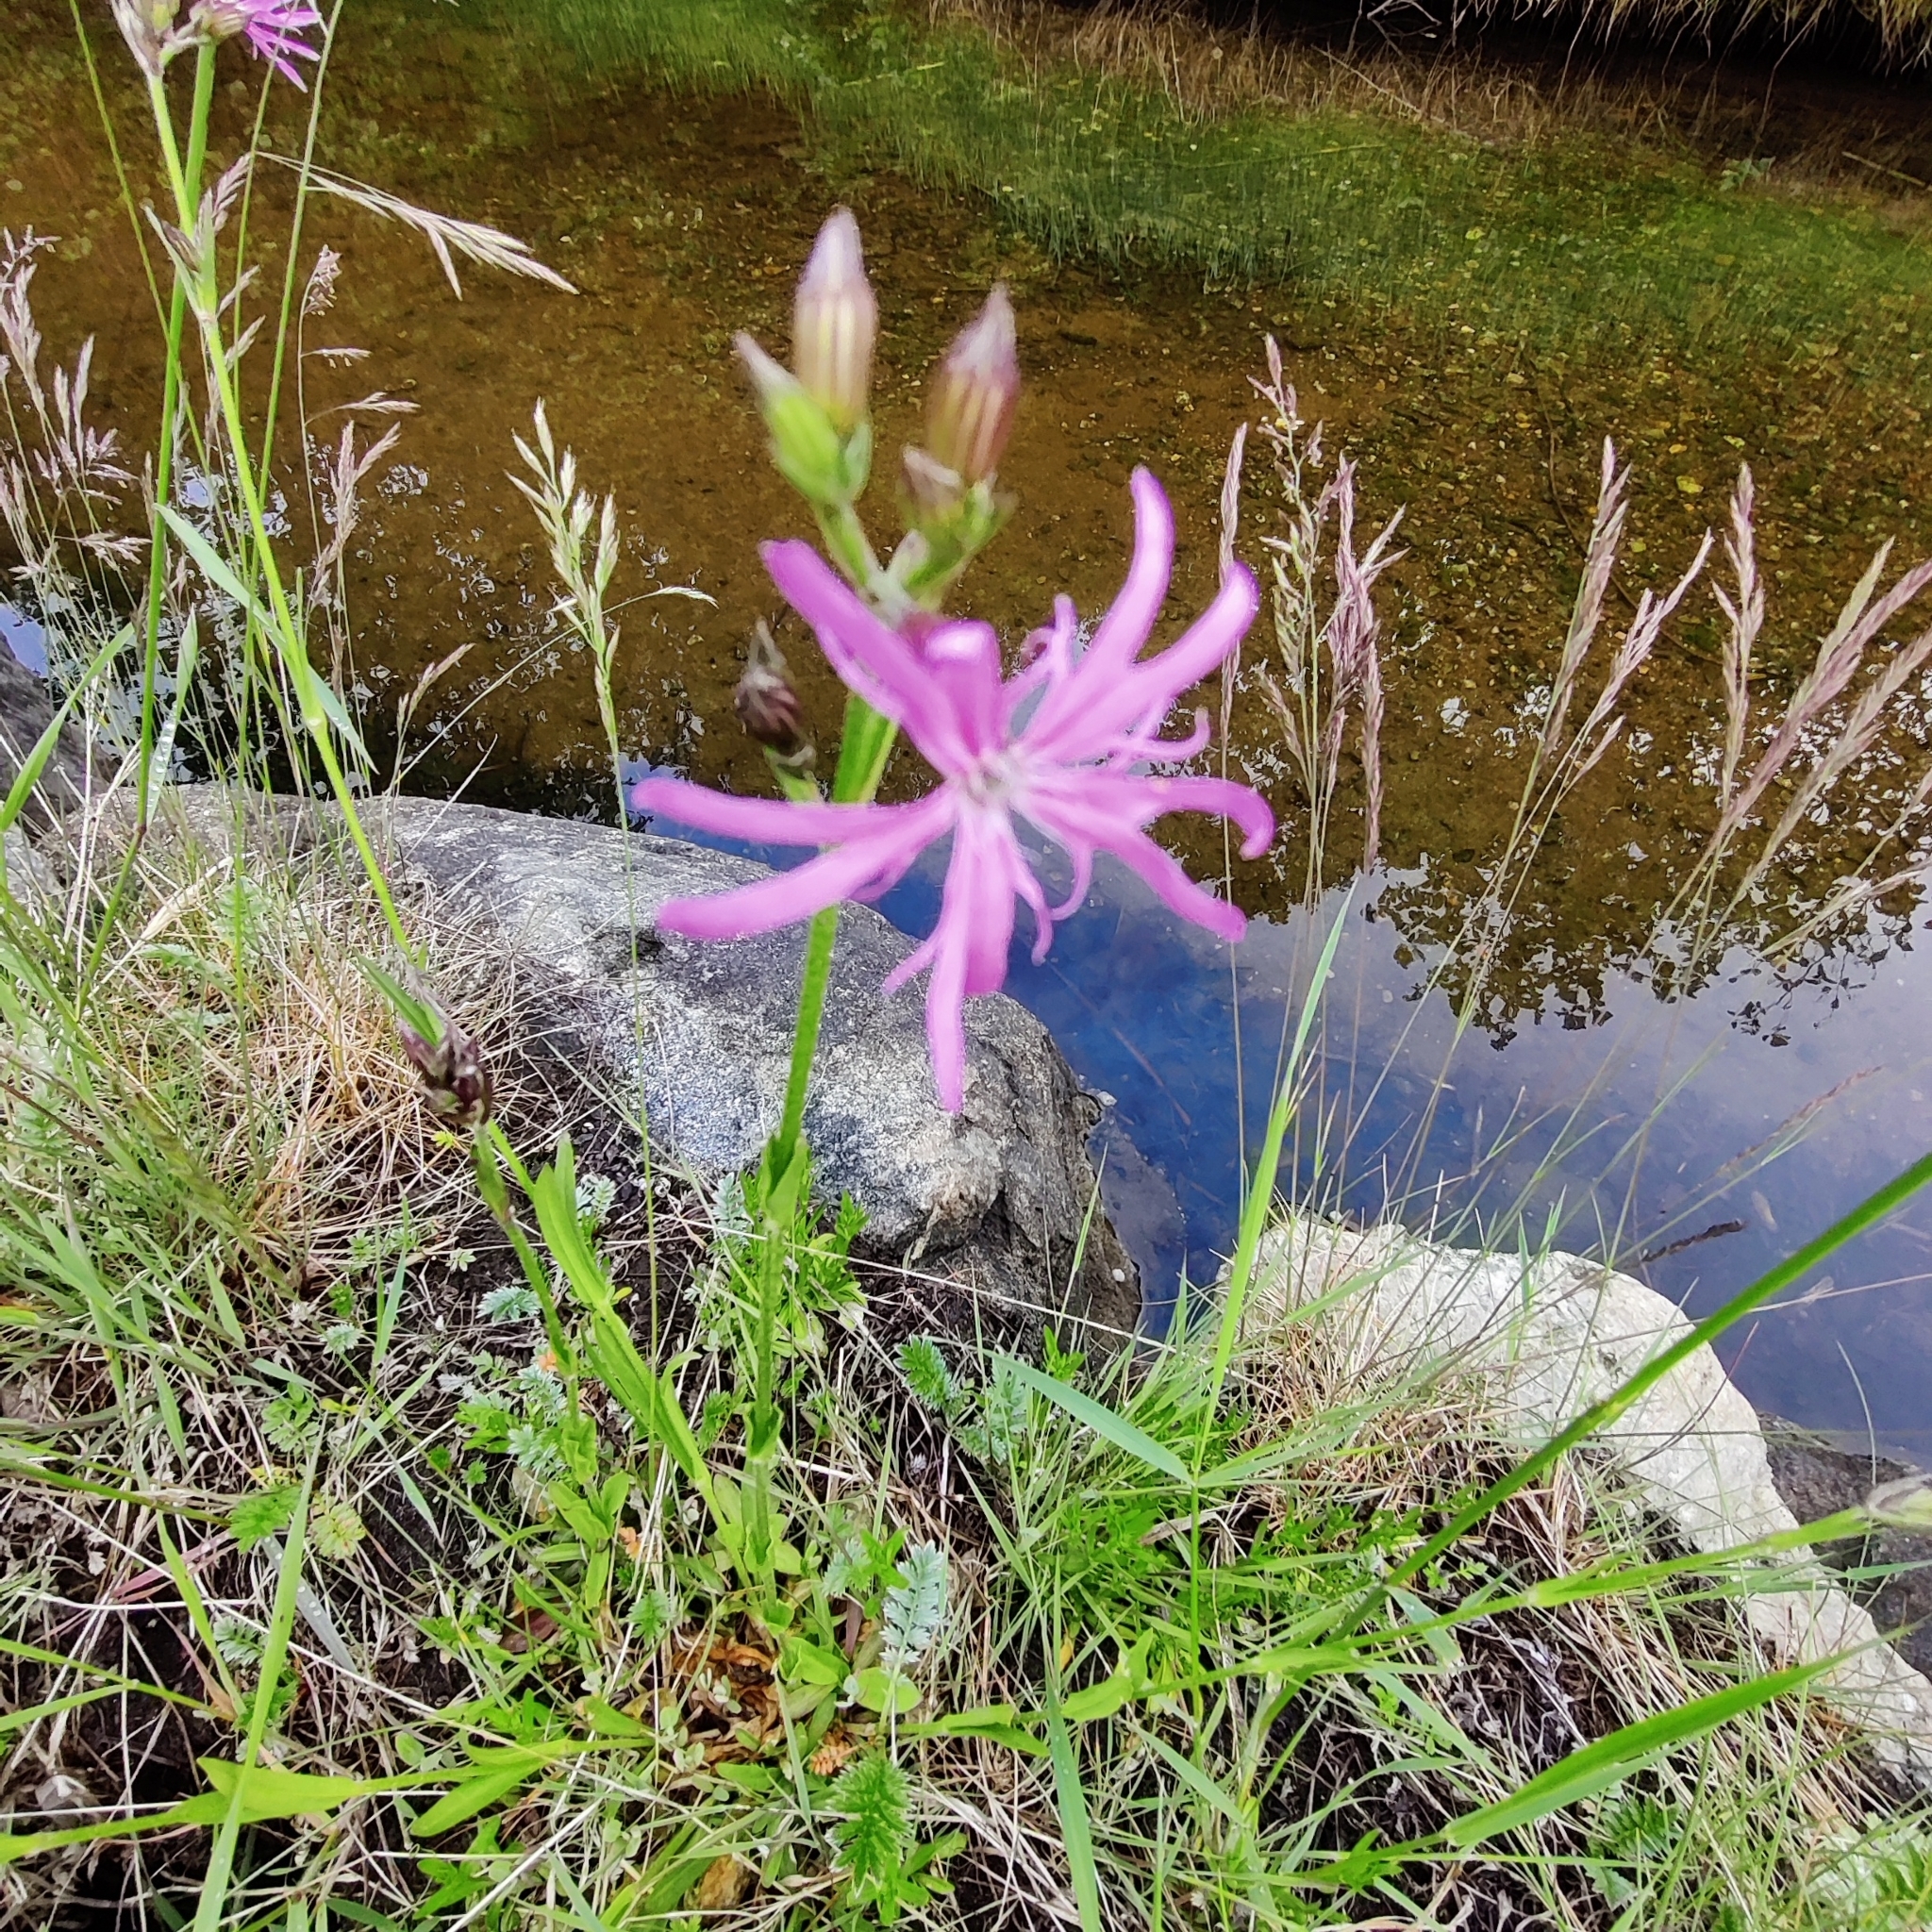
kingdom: Plantae
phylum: Tracheophyta
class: Magnoliopsida
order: Caryophyllales
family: Caryophyllaceae
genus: Silene
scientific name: Silene flos-cuculi
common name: Ragged-robin
